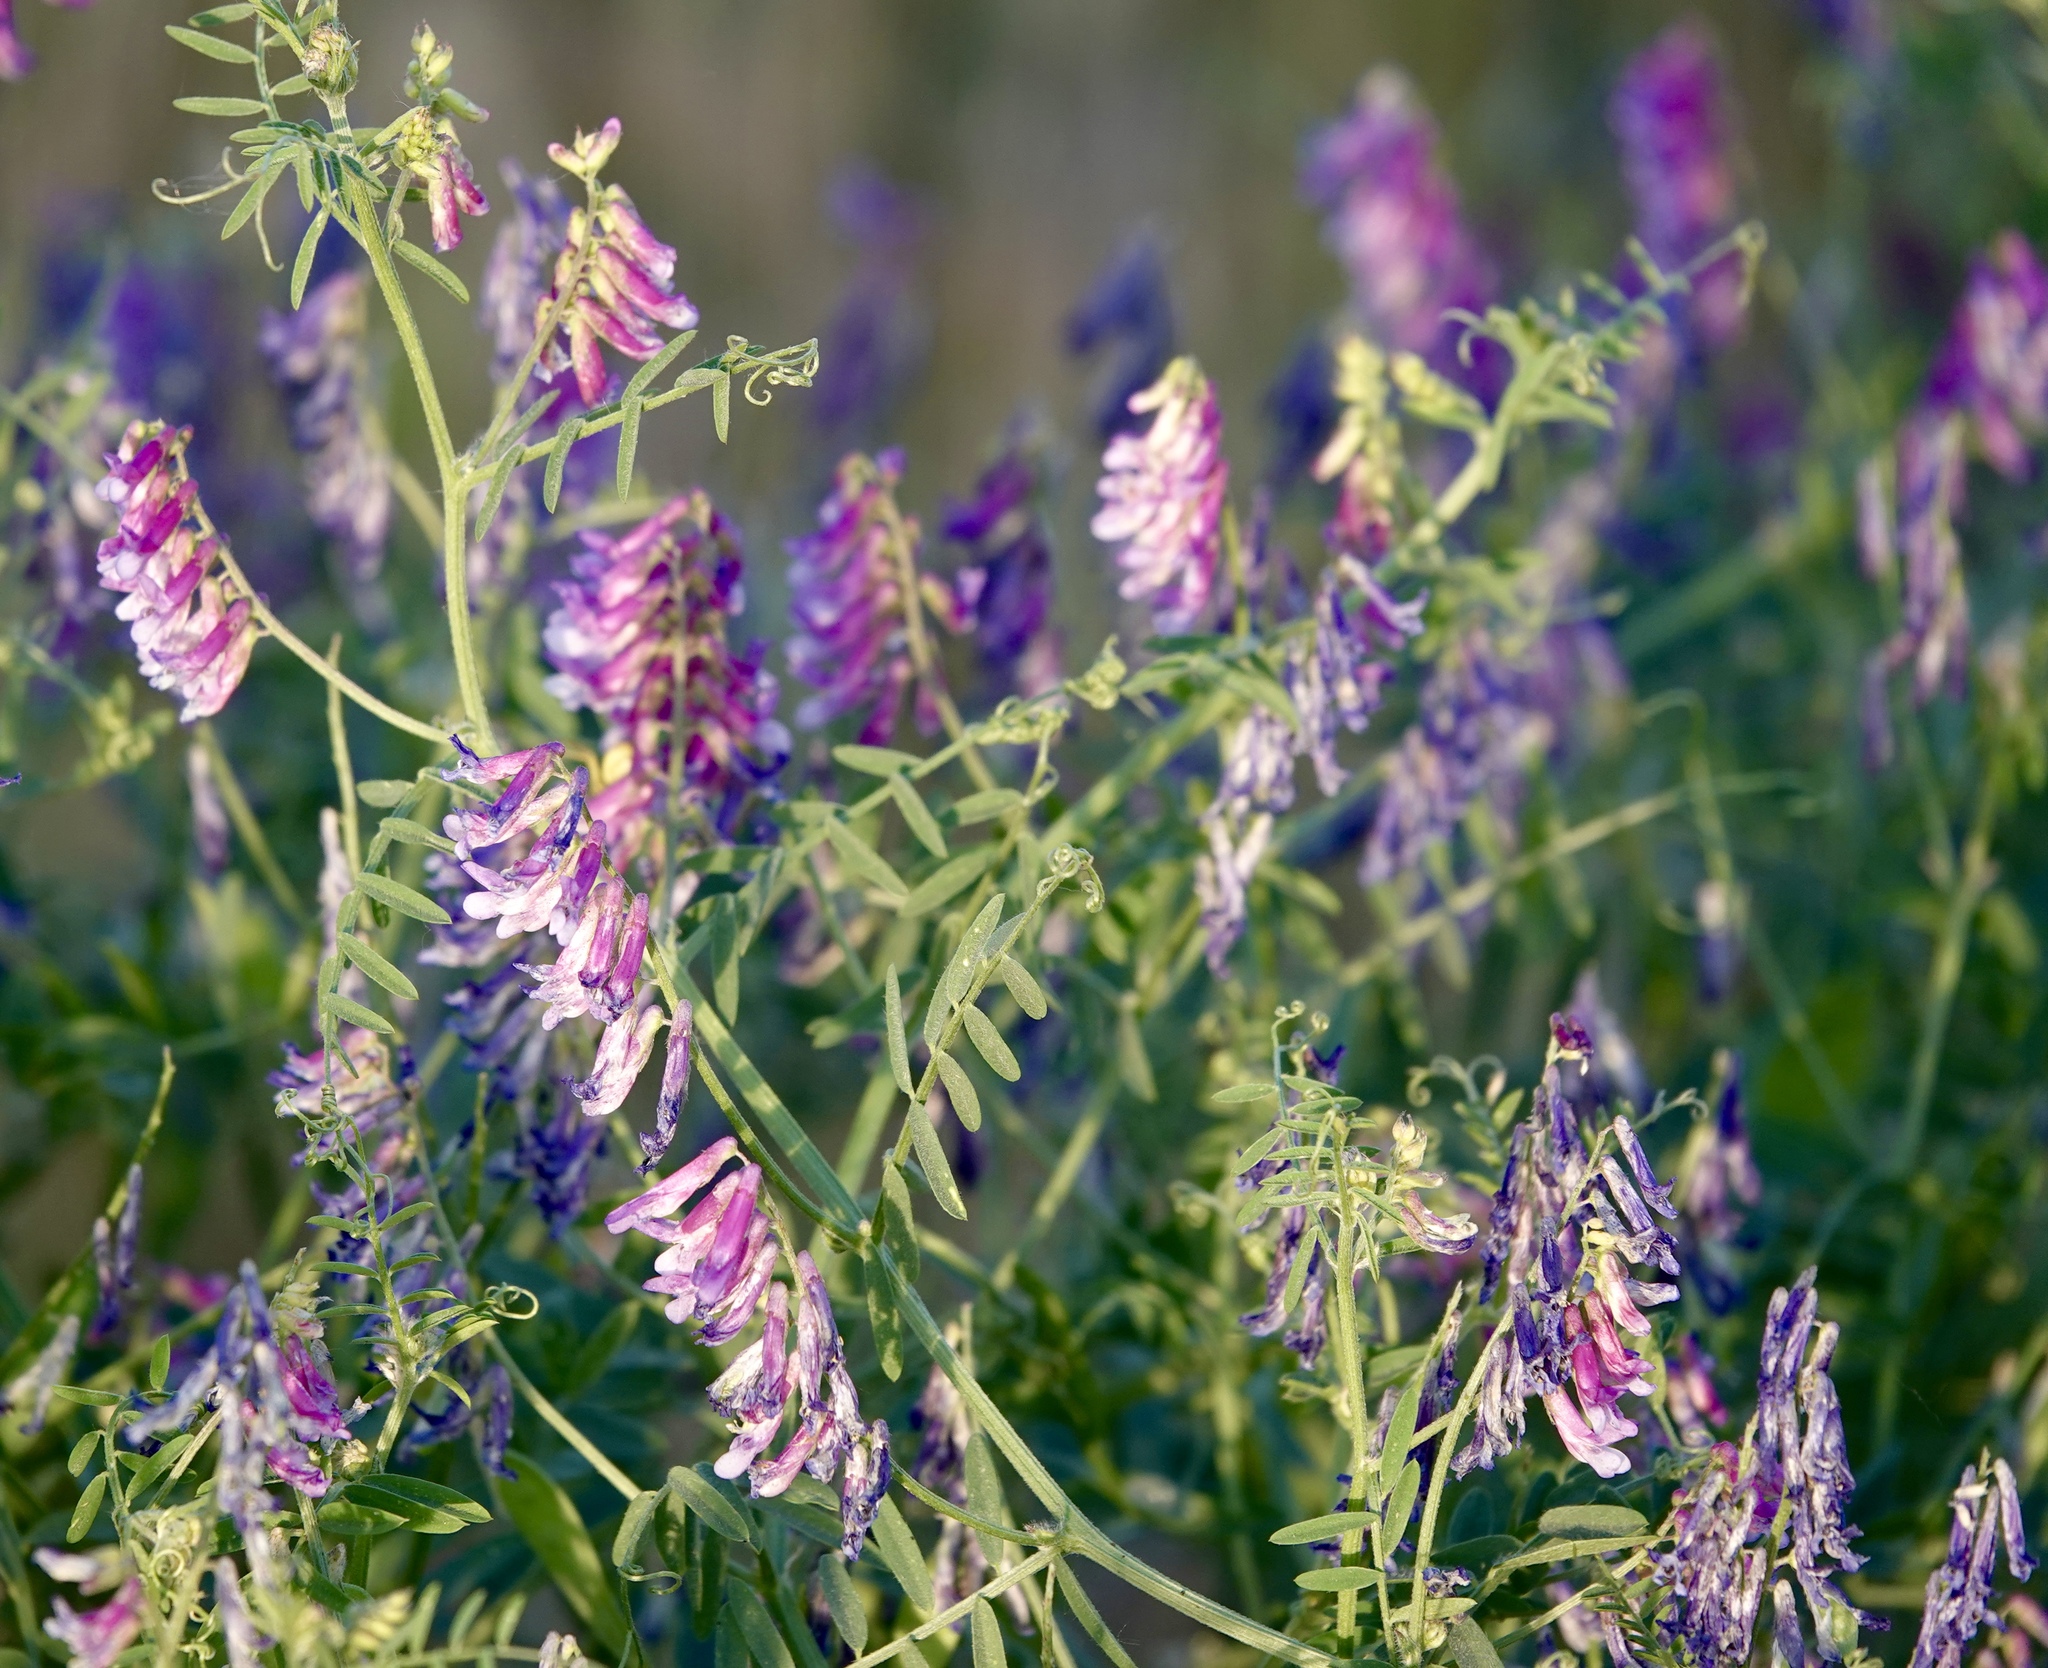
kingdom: Plantae
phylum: Tracheophyta
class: Magnoliopsida
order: Fabales
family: Fabaceae
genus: Vicia
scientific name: Vicia villosa
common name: Fodder vetch
